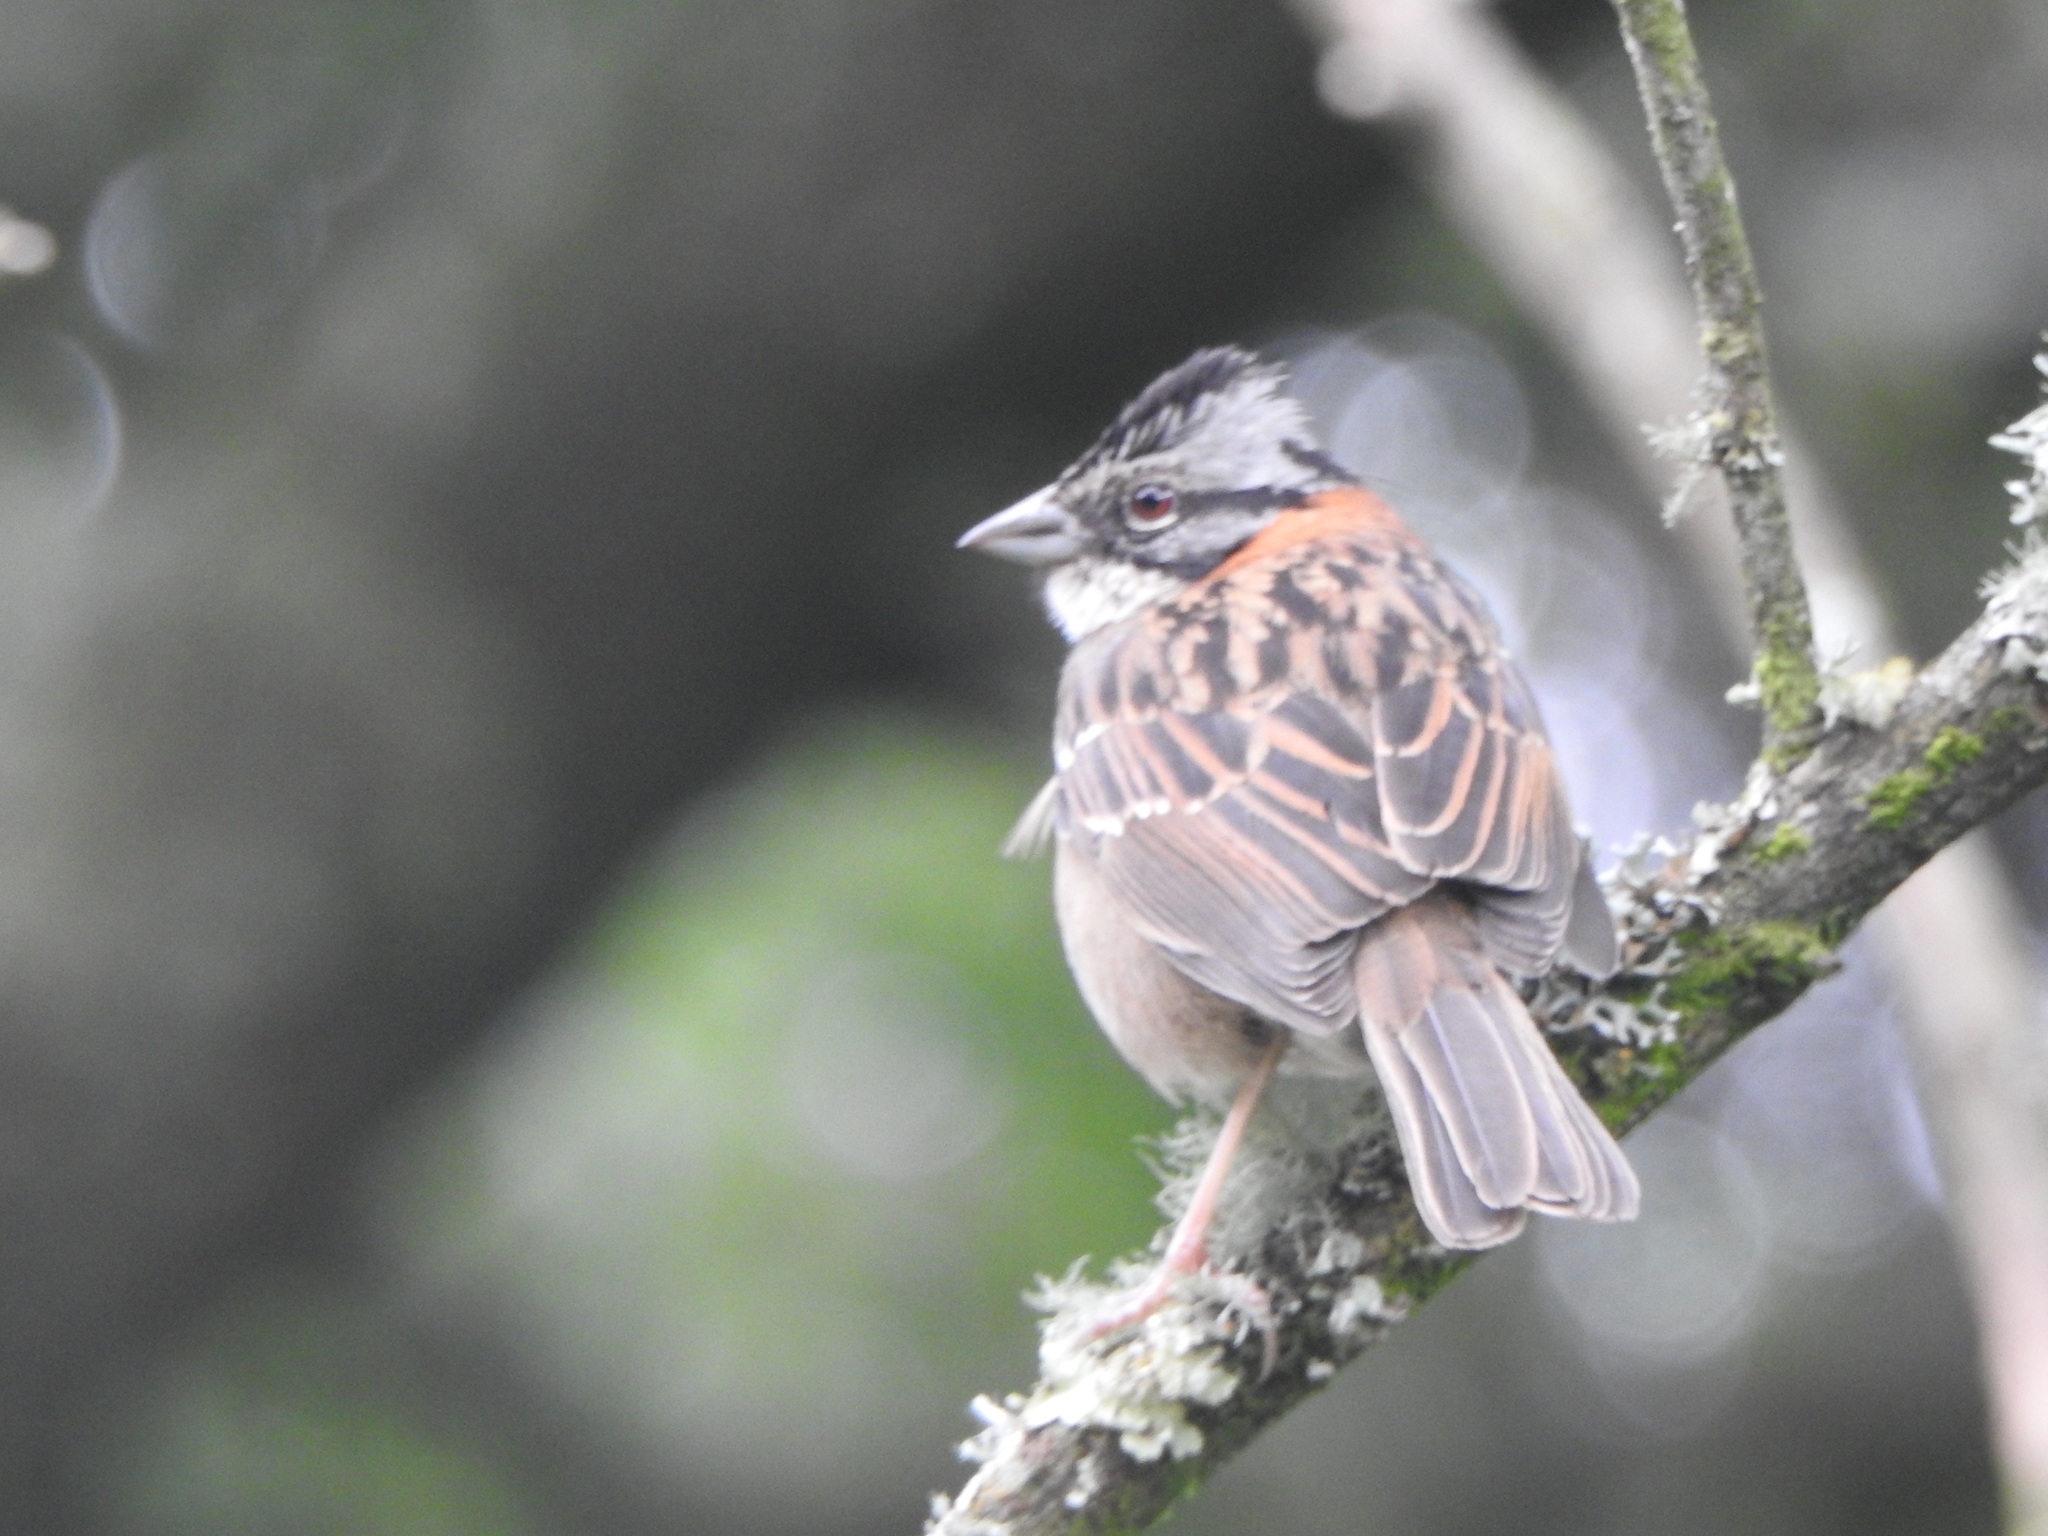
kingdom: Animalia
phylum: Chordata
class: Aves
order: Passeriformes
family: Passerellidae
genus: Zonotrichia
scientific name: Zonotrichia capensis
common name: Rufous-collared sparrow
